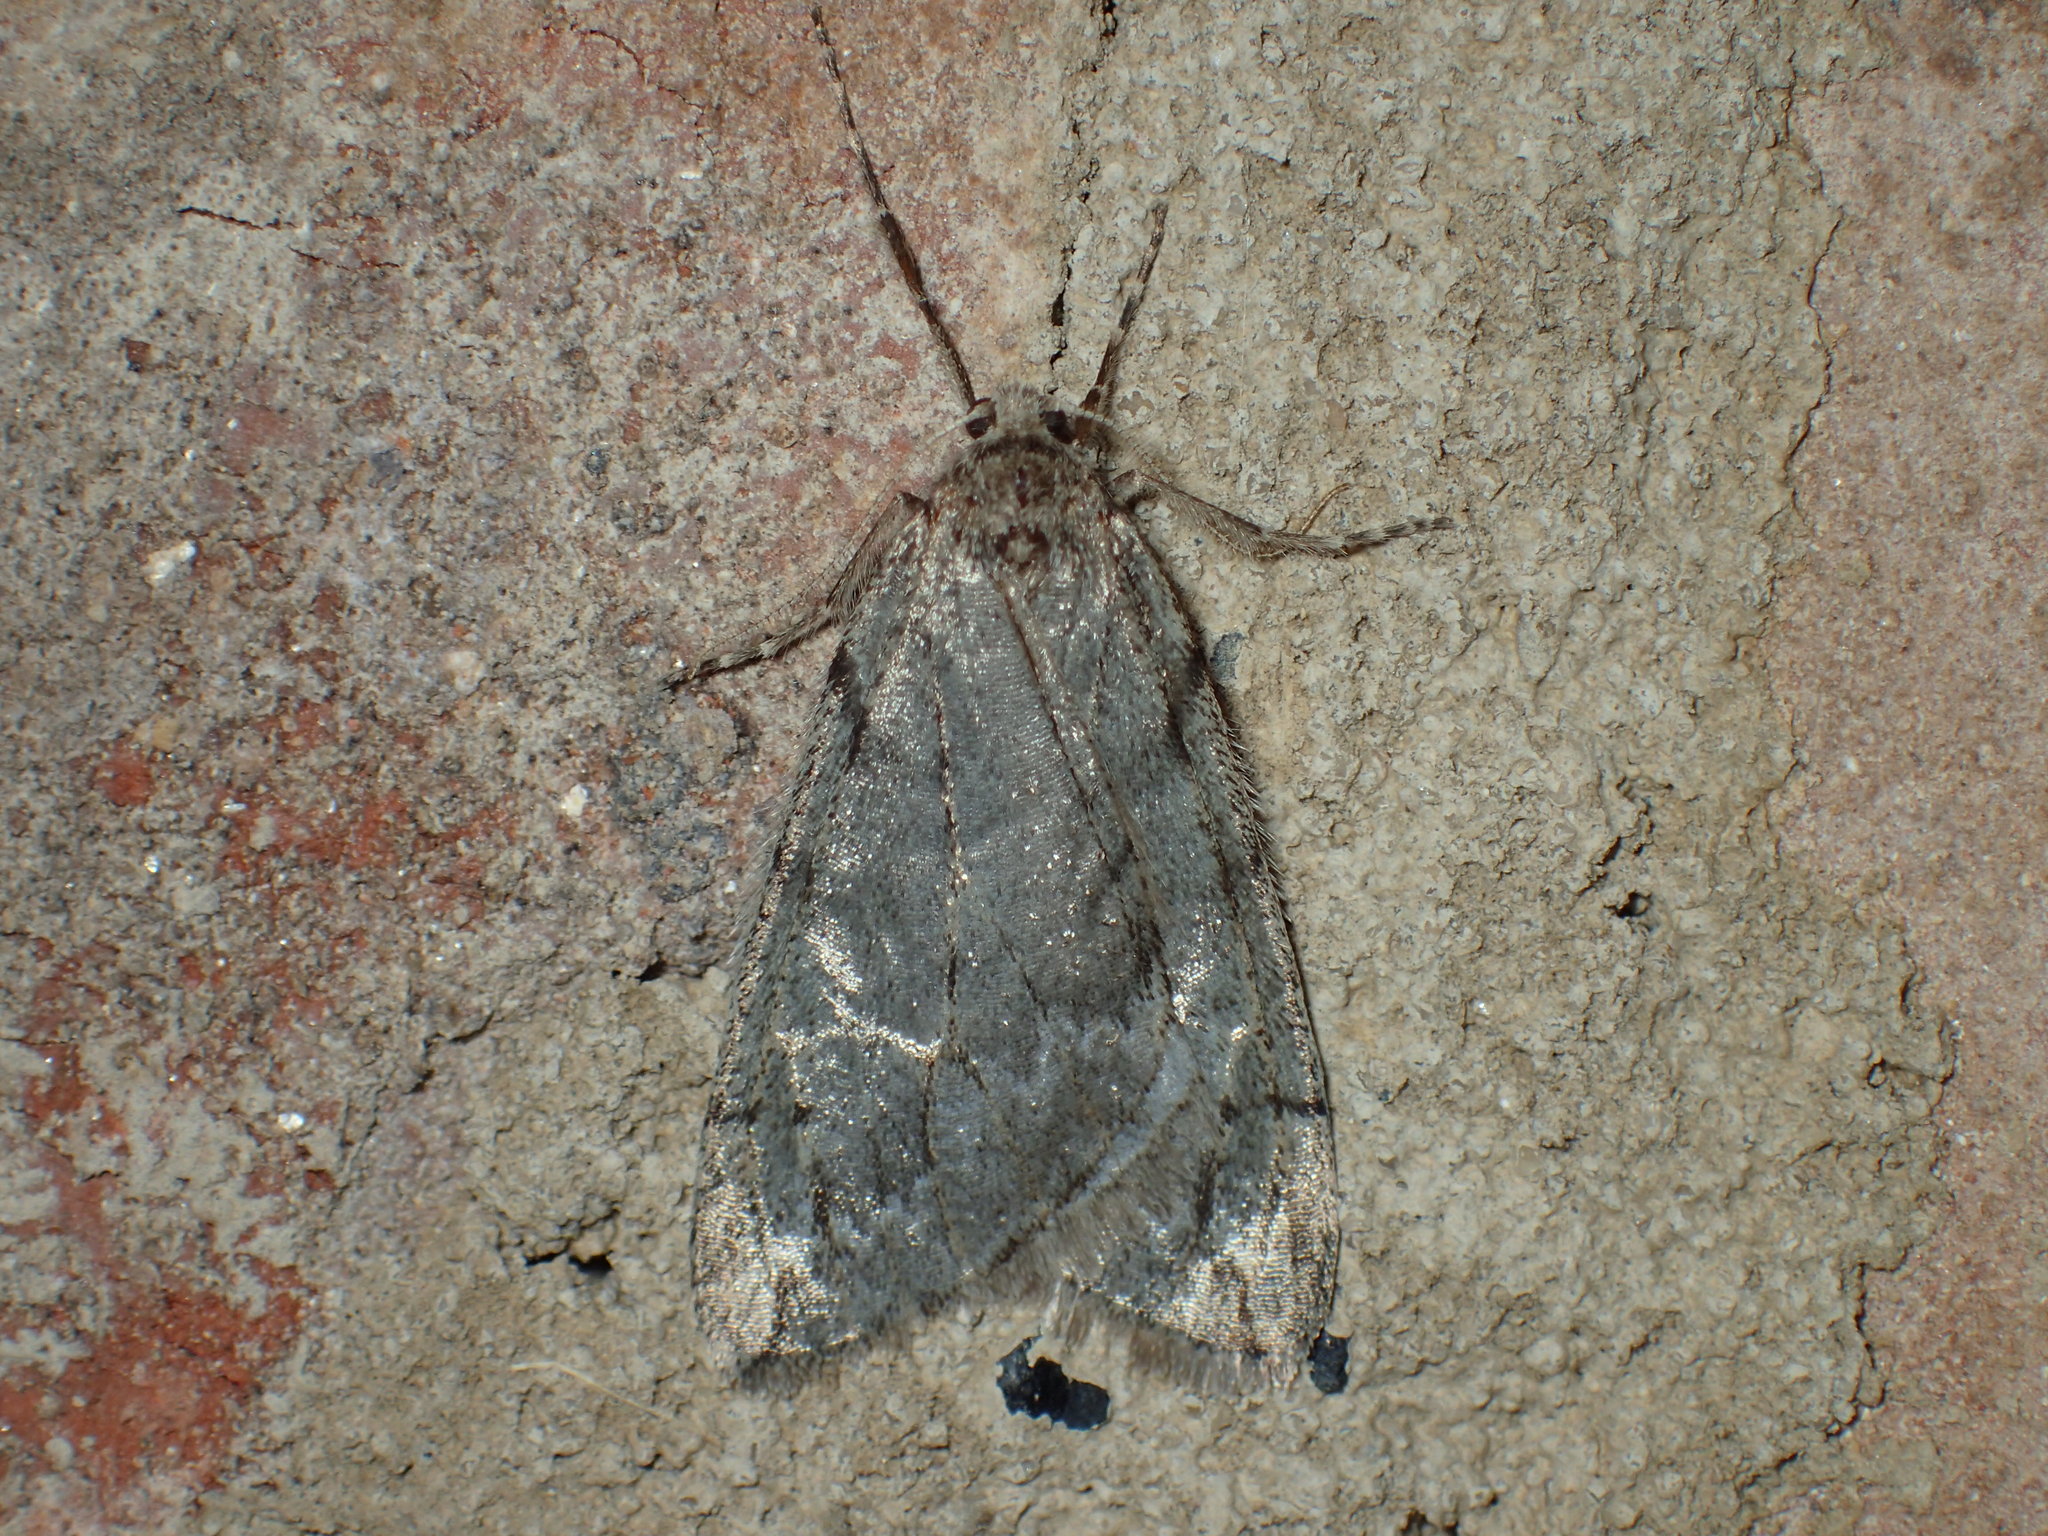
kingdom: Animalia
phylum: Arthropoda
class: Insecta
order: Lepidoptera
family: Geometridae
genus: Paleacrita
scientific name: Paleacrita vernata
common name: Spring cankerworm
